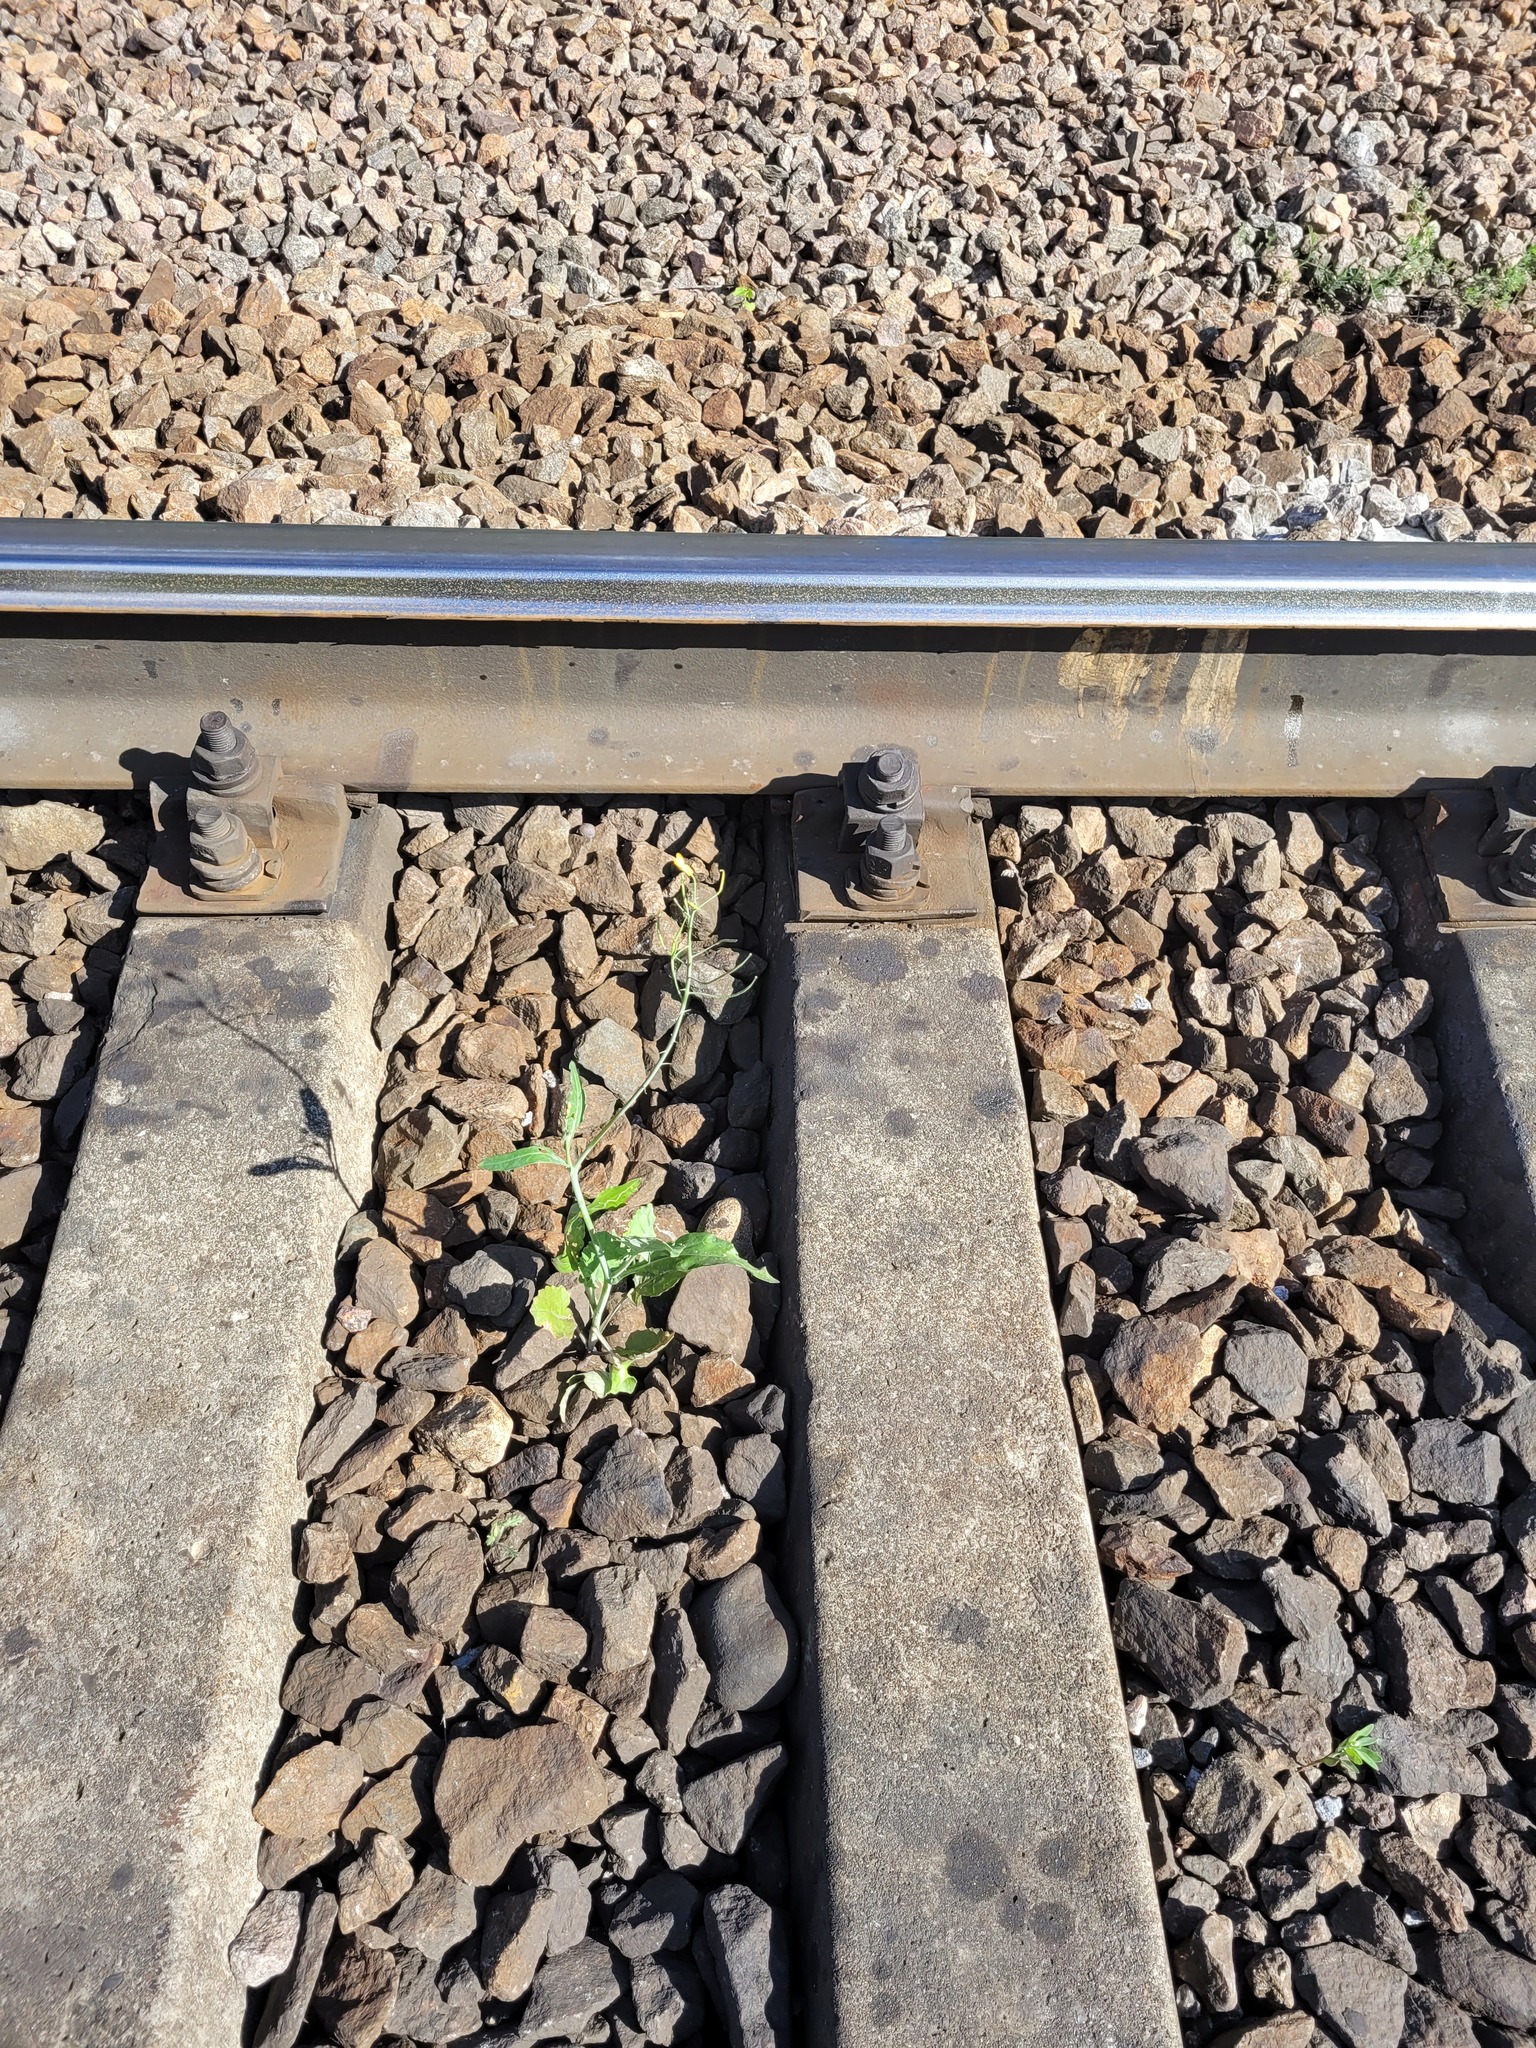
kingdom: Plantae
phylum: Tracheophyta
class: Magnoliopsida
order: Brassicales
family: Brassicaceae
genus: Brassica
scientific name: Brassica napus
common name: Rape
